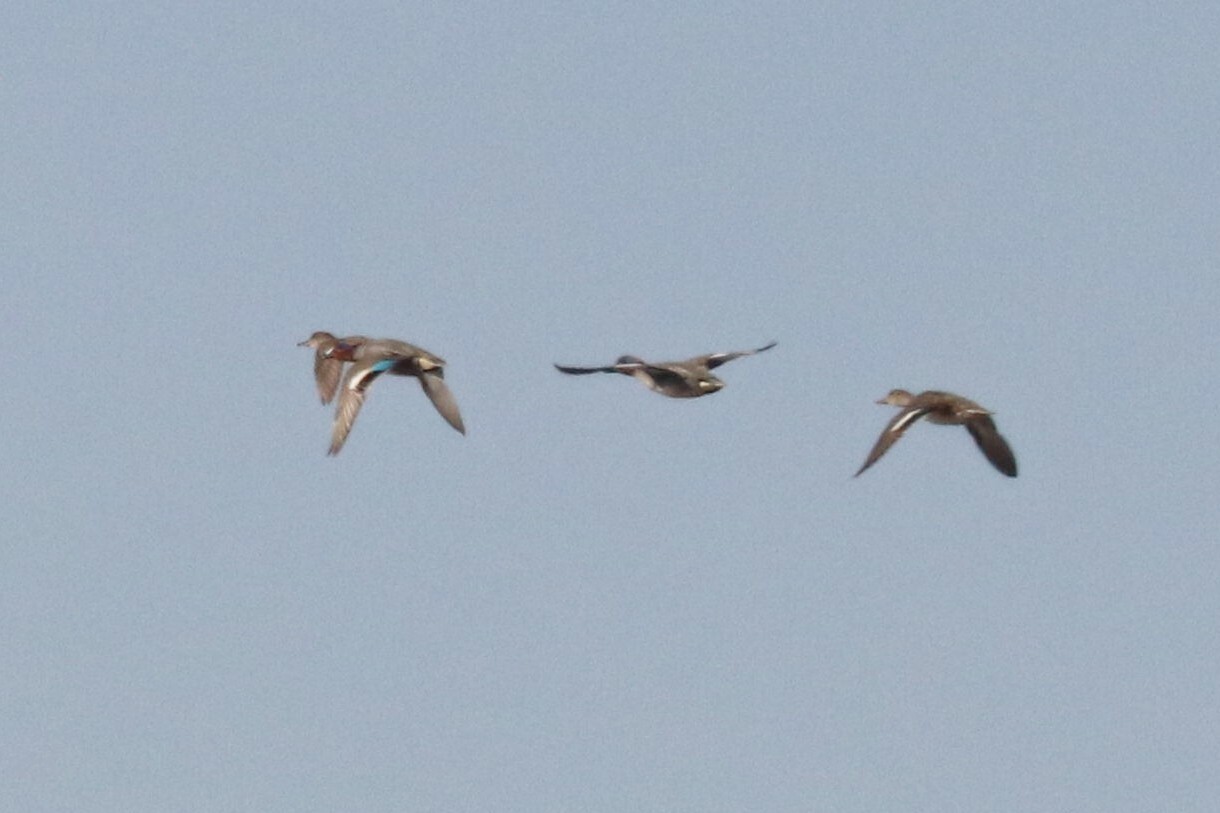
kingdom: Animalia
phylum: Chordata
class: Aves
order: Anseriformes
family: Anatidae
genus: Anas
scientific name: Anas crecca
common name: Eurasian teal
